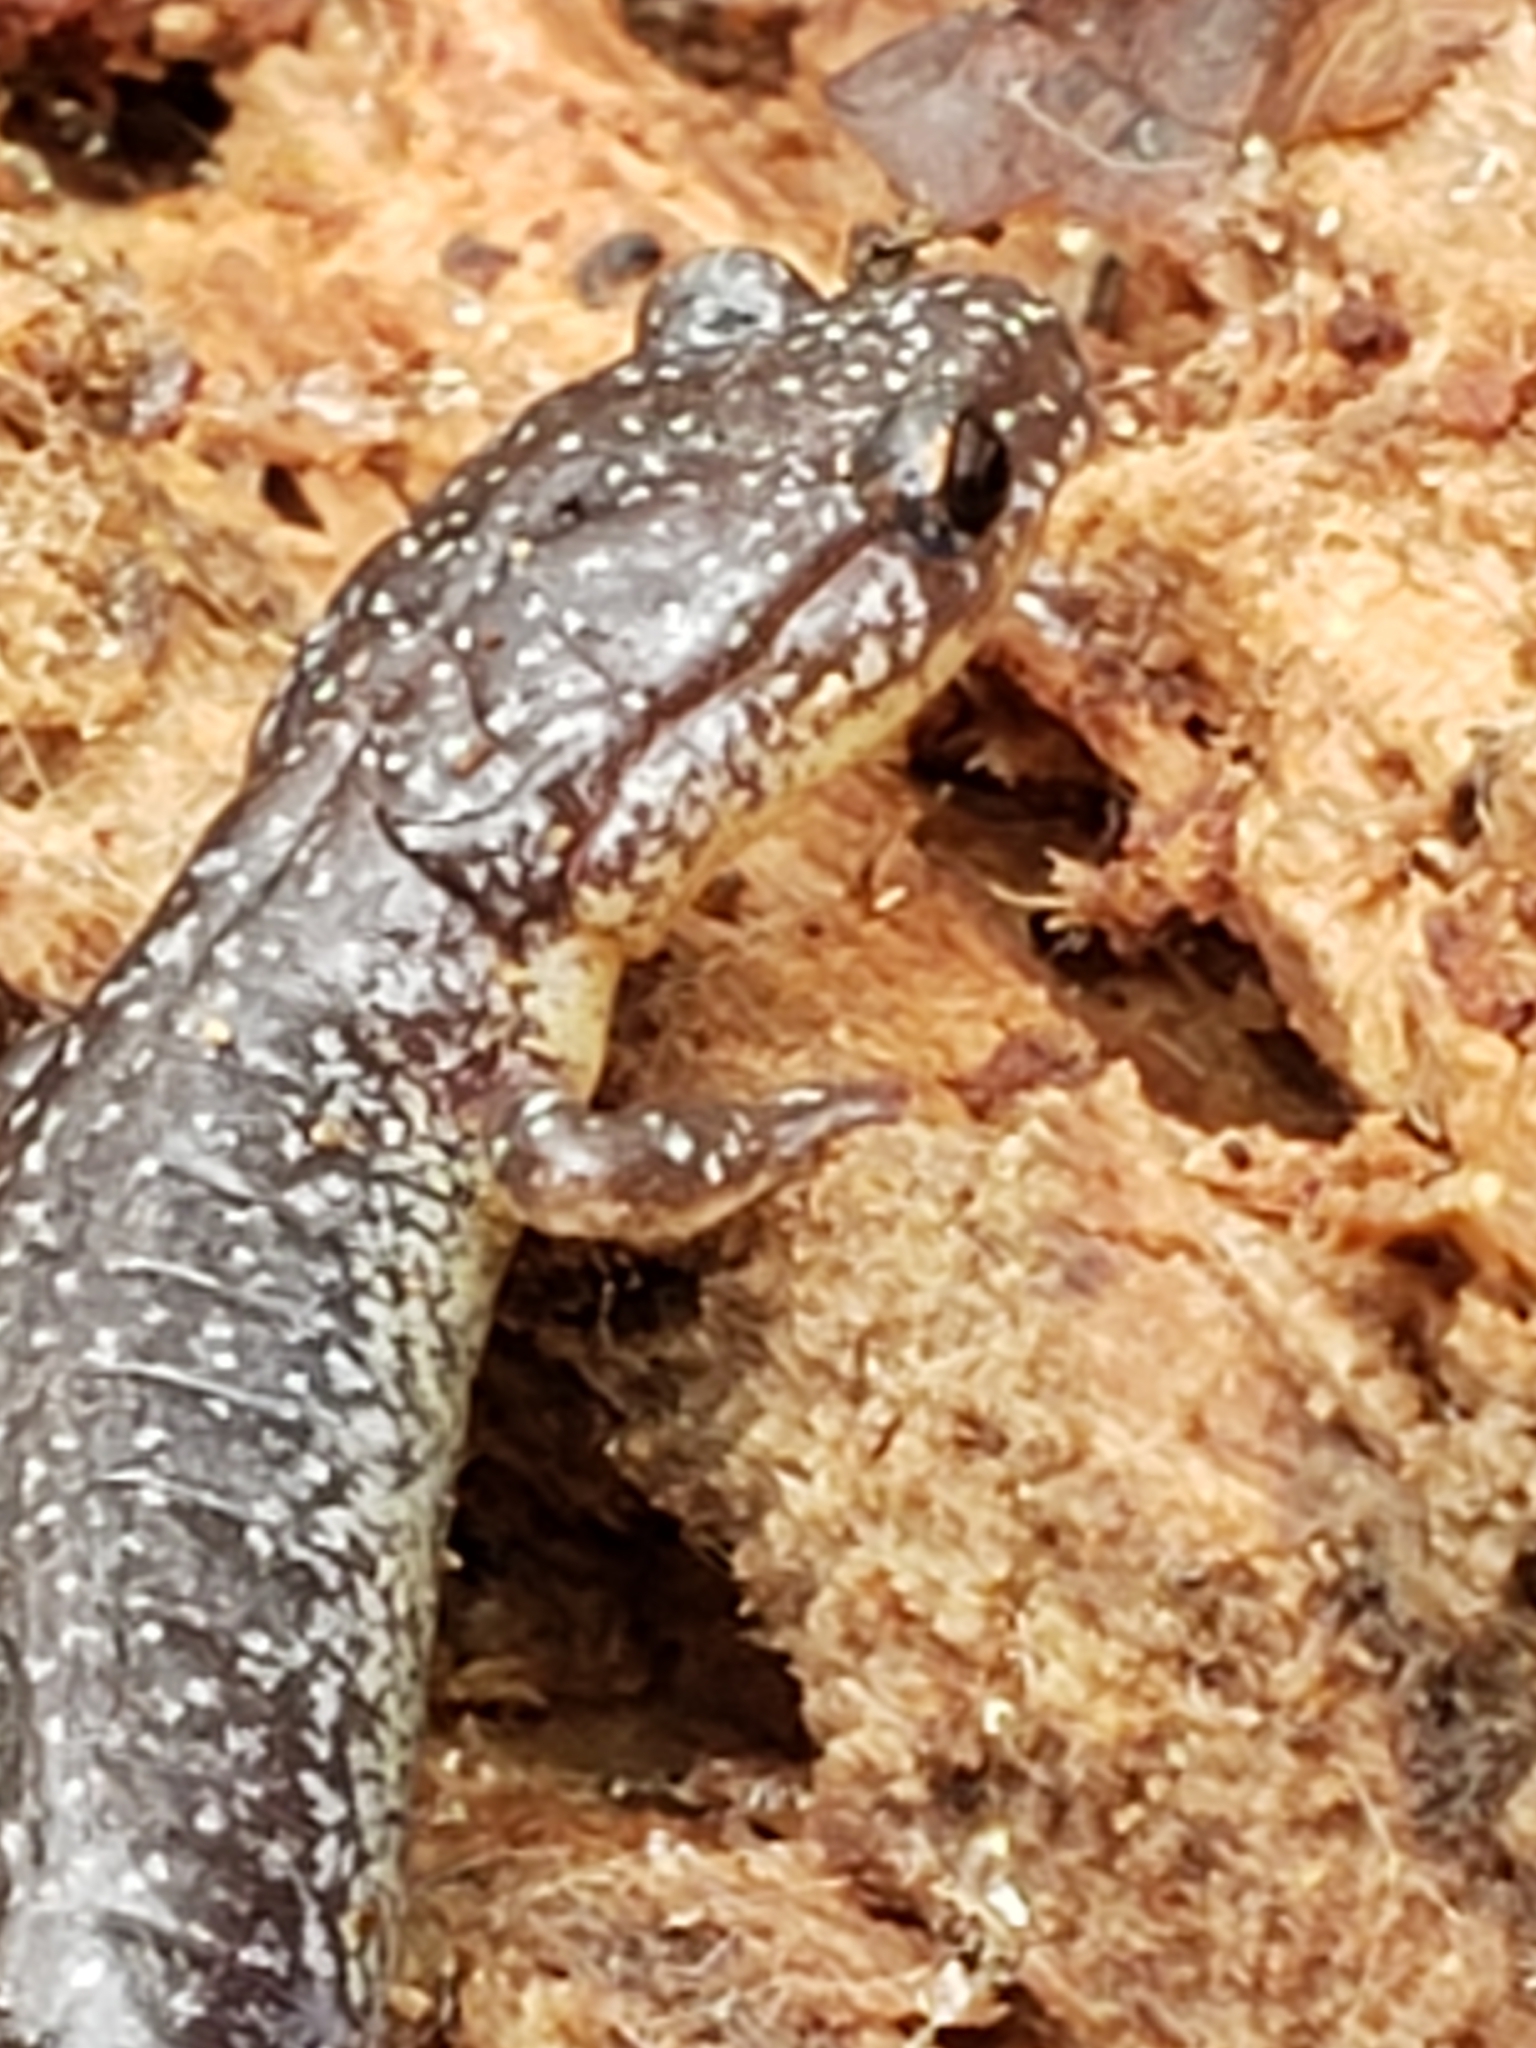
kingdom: Animalia
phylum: Chordata
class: Amphibia
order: Caudata
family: Plethodontidae
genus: Plethodon
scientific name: Plethodon cinereus
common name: Redback salamander
